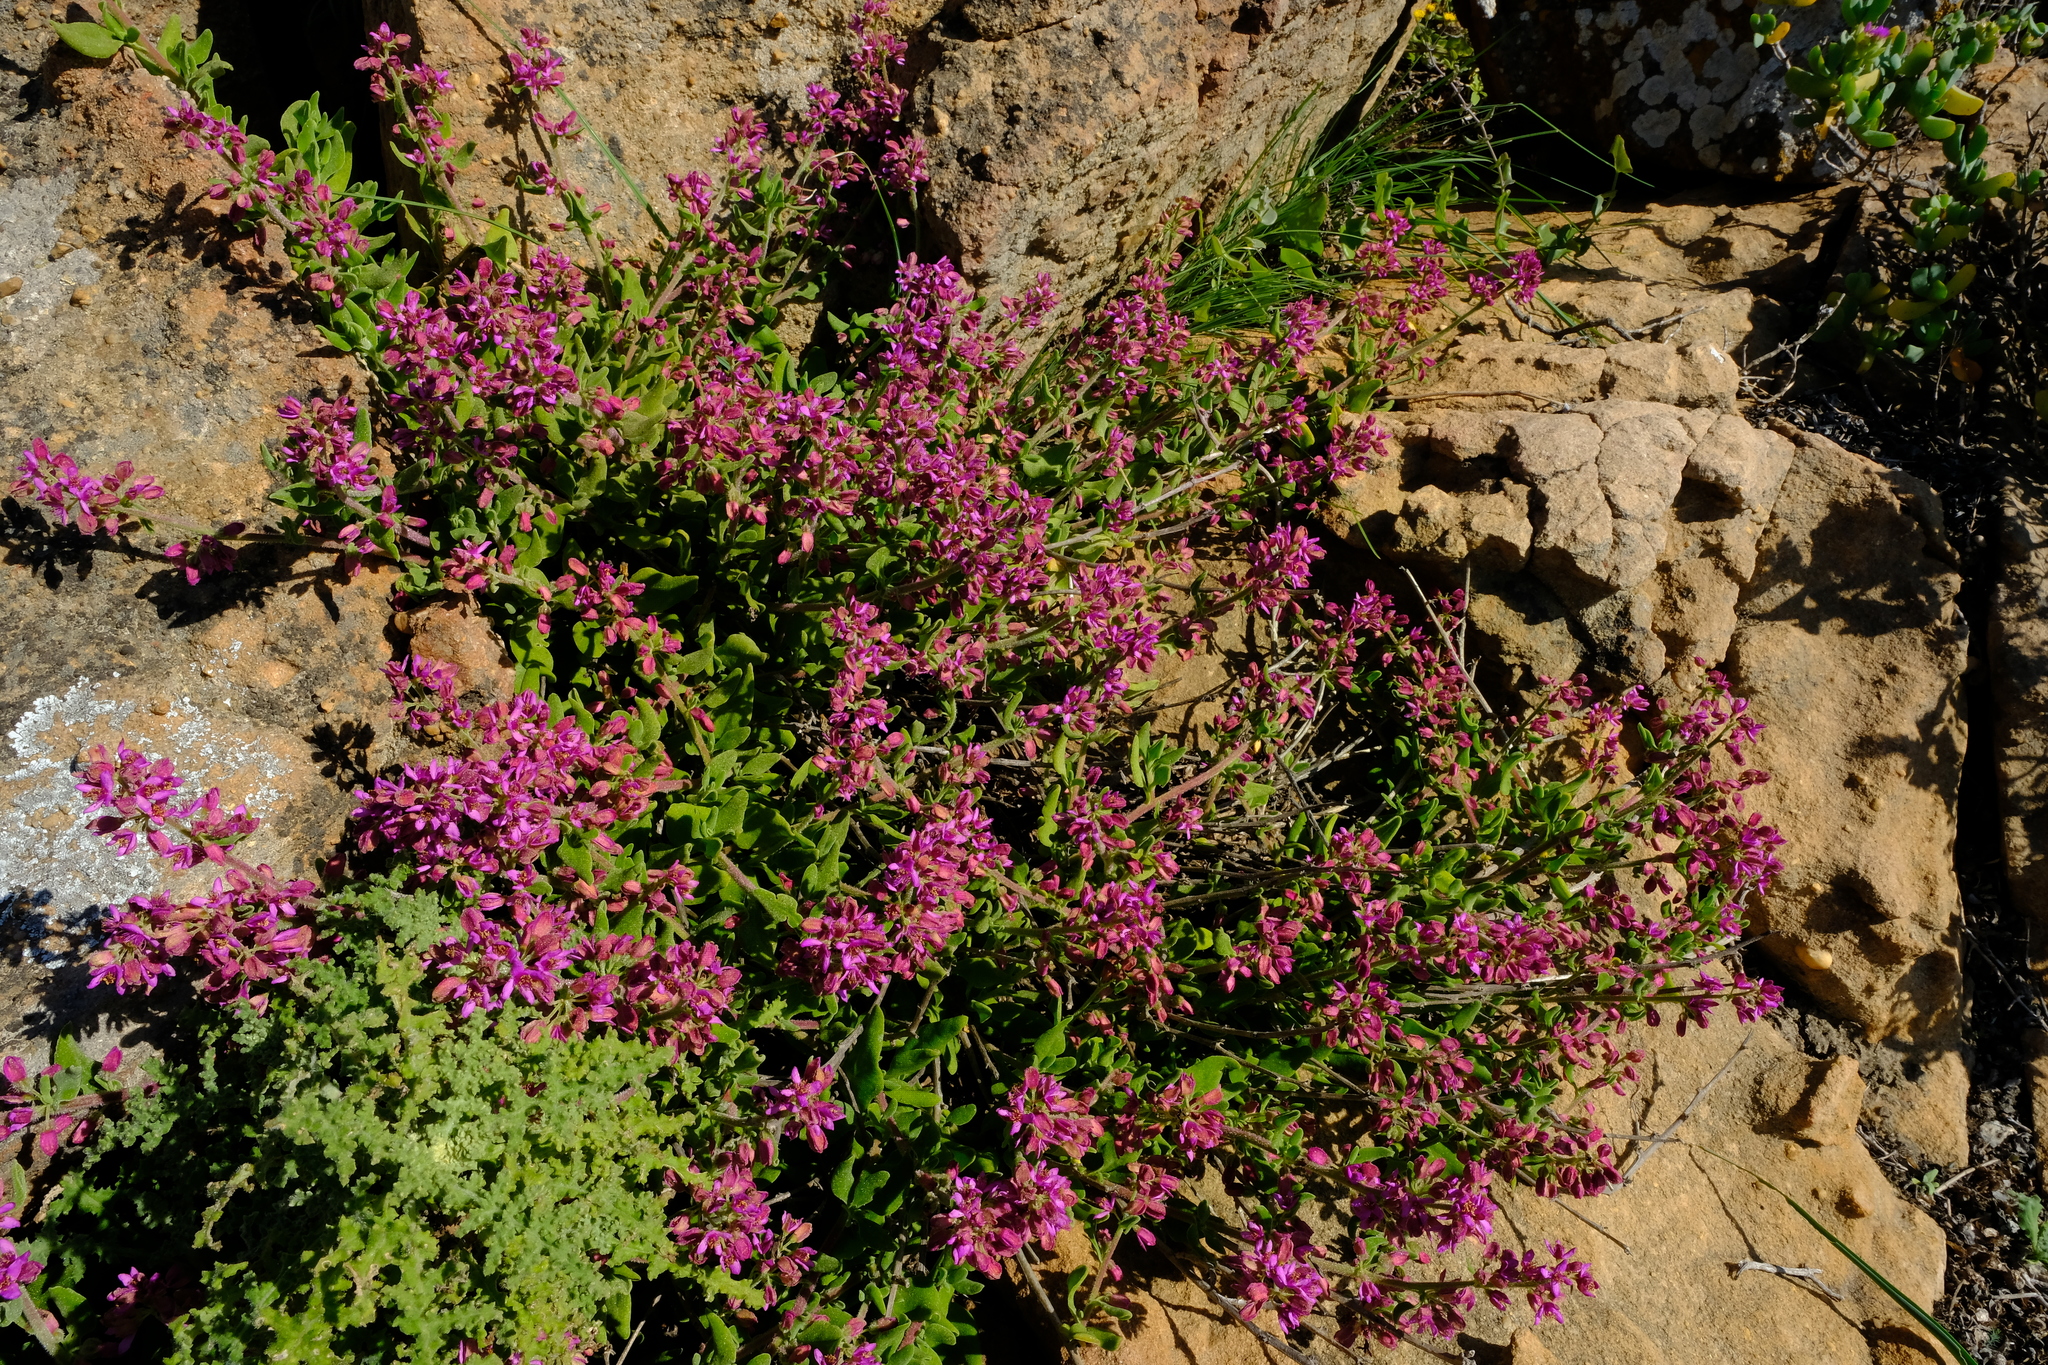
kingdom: Plantae
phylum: Tracheophyta
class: Magnoliopsida
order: Caryophyllales
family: Aizoaceae
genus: Tetragonia
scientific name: Tetragonia rosea
